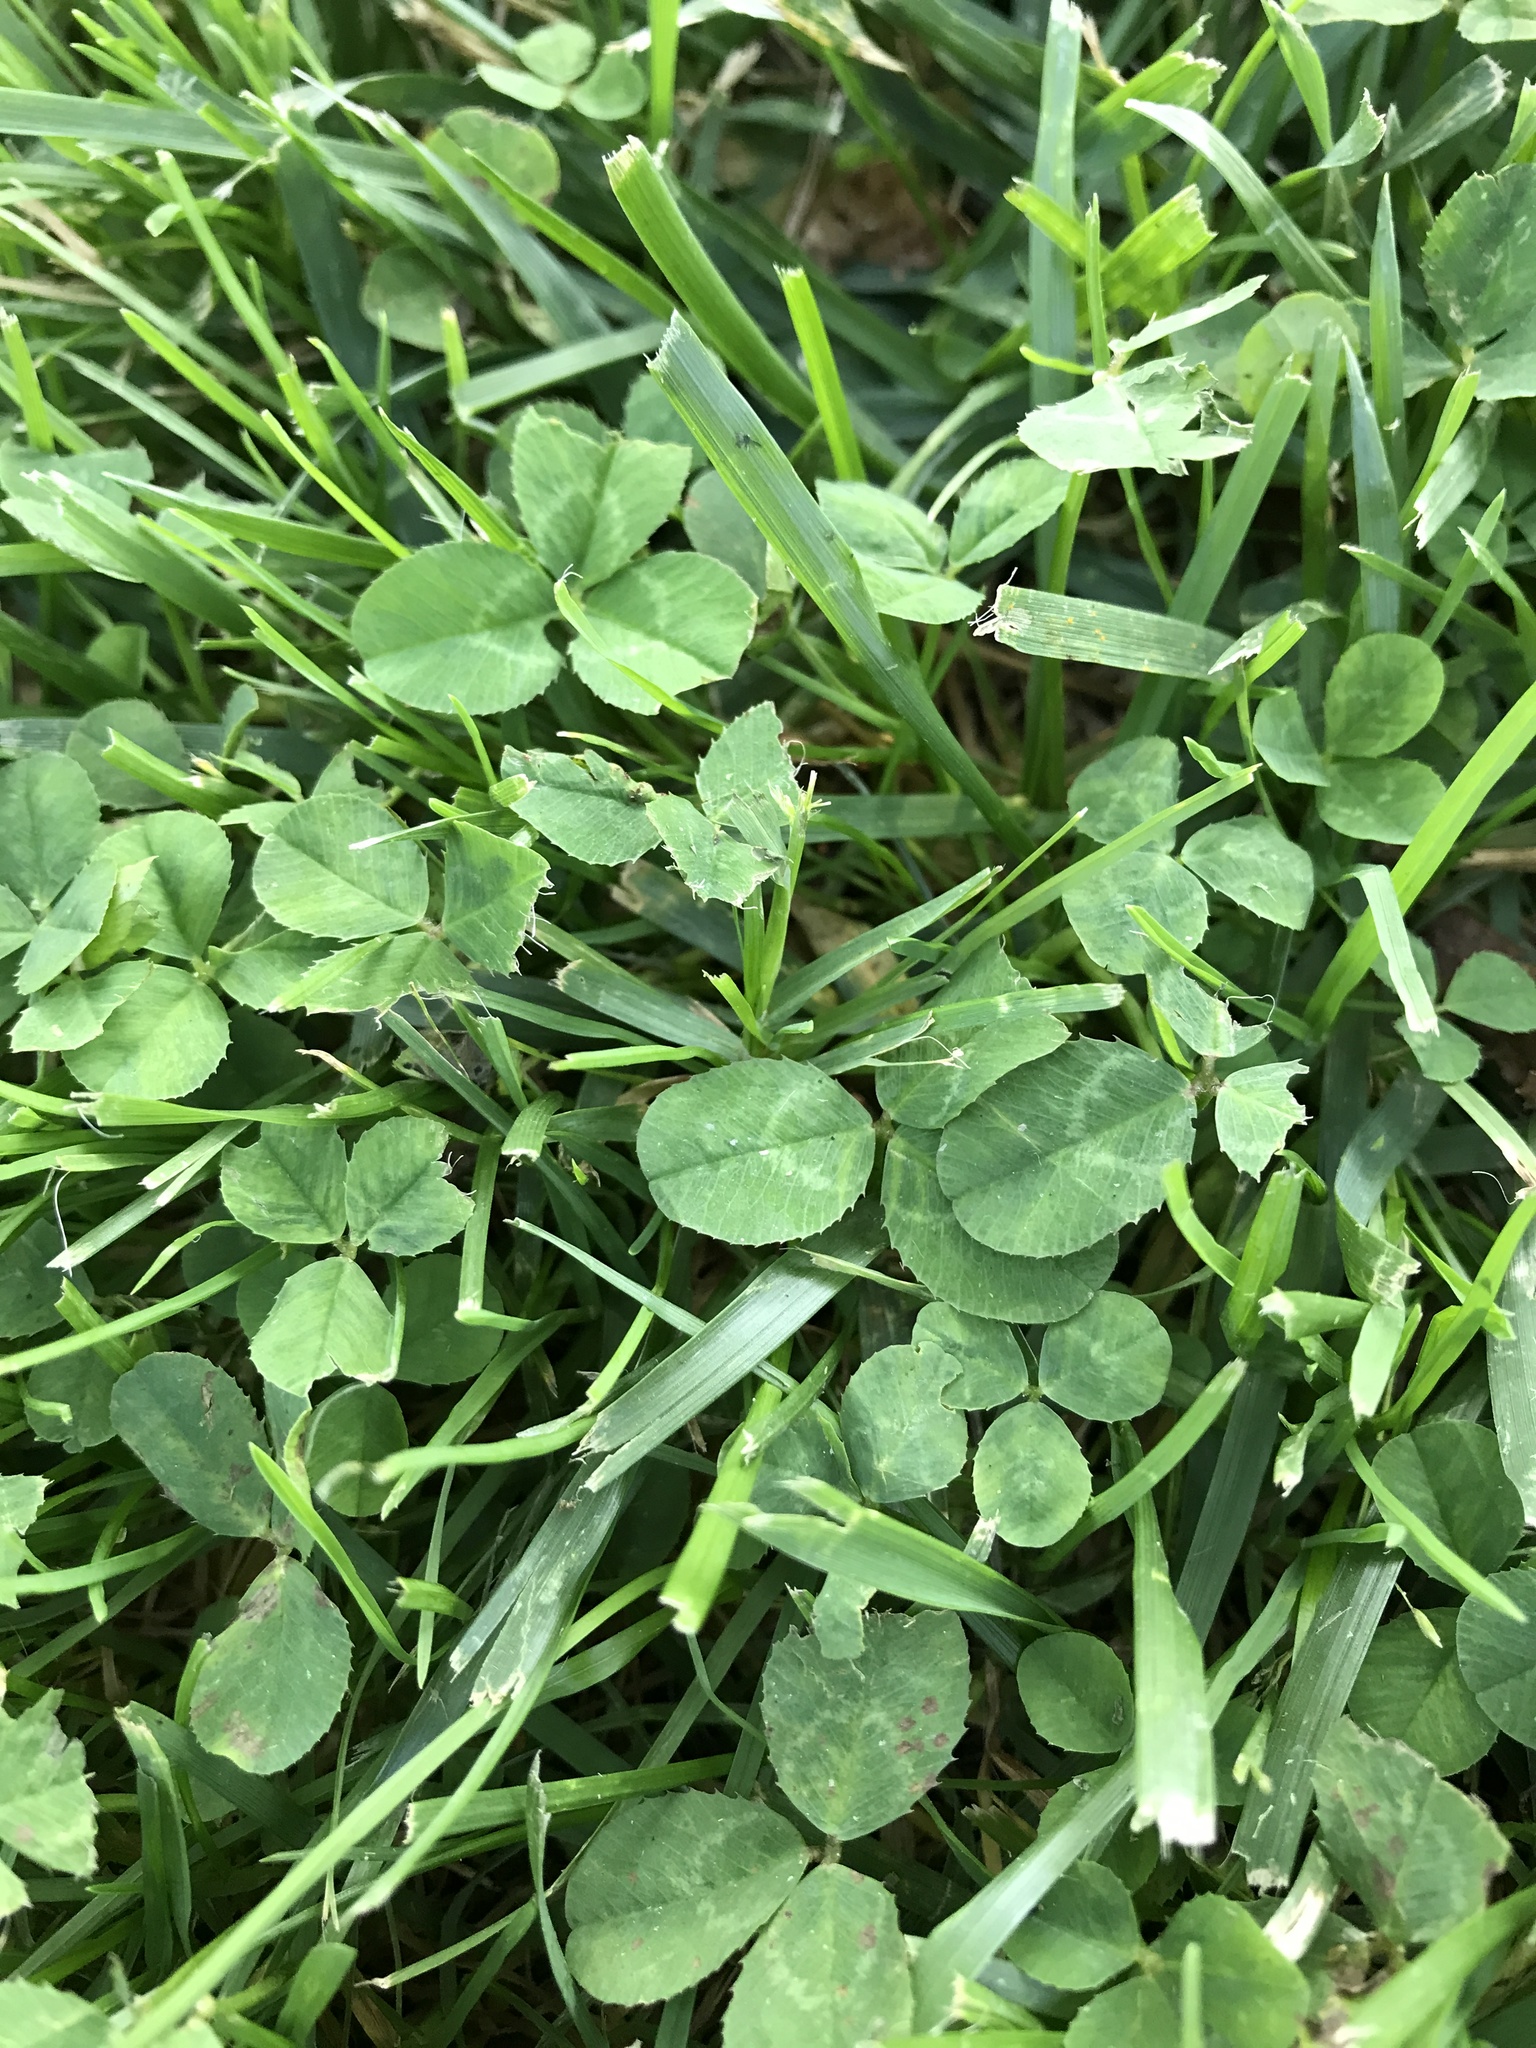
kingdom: Plantae
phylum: Tracheophyta
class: Magnoliopsida
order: Fabales
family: Fabaceae
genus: Trifolium
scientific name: Trifolium repens
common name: White clover
